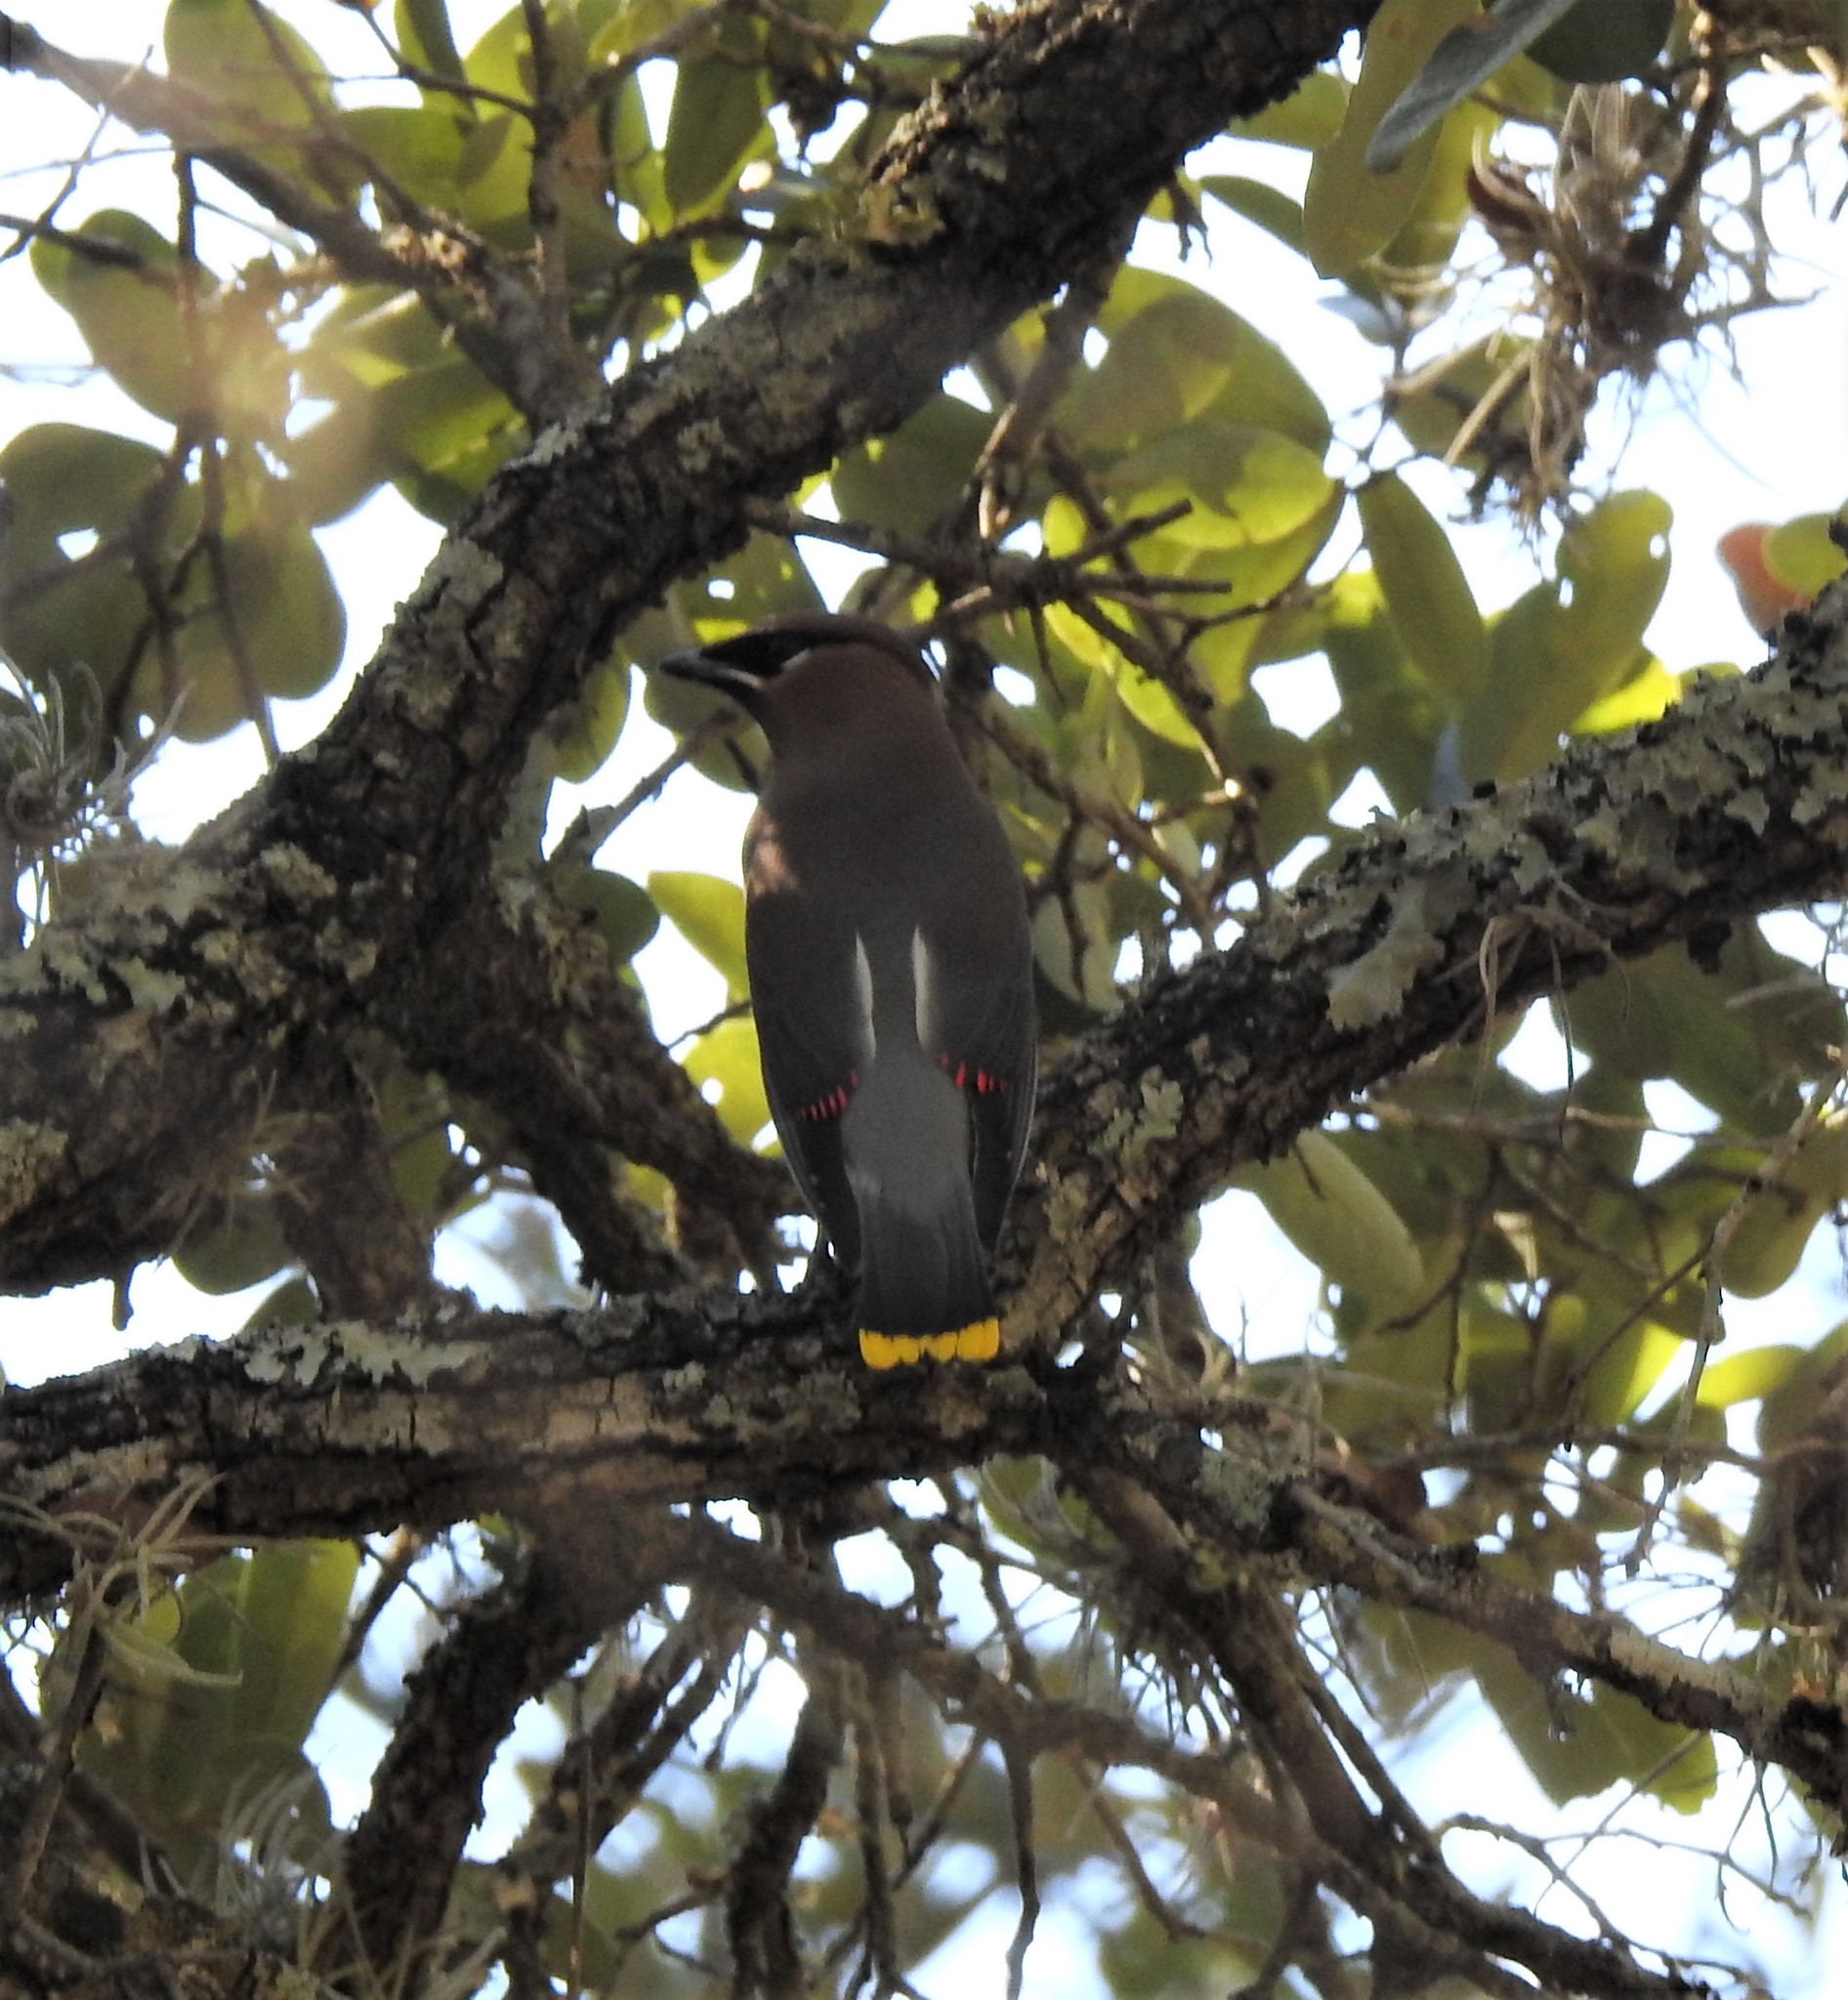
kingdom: Animalia
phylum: Chordata
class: Aves
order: Passeriformes
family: Bombycillidae
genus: Bombycilla
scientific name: Bombycilla cedrorum
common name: Cedar waxwing
